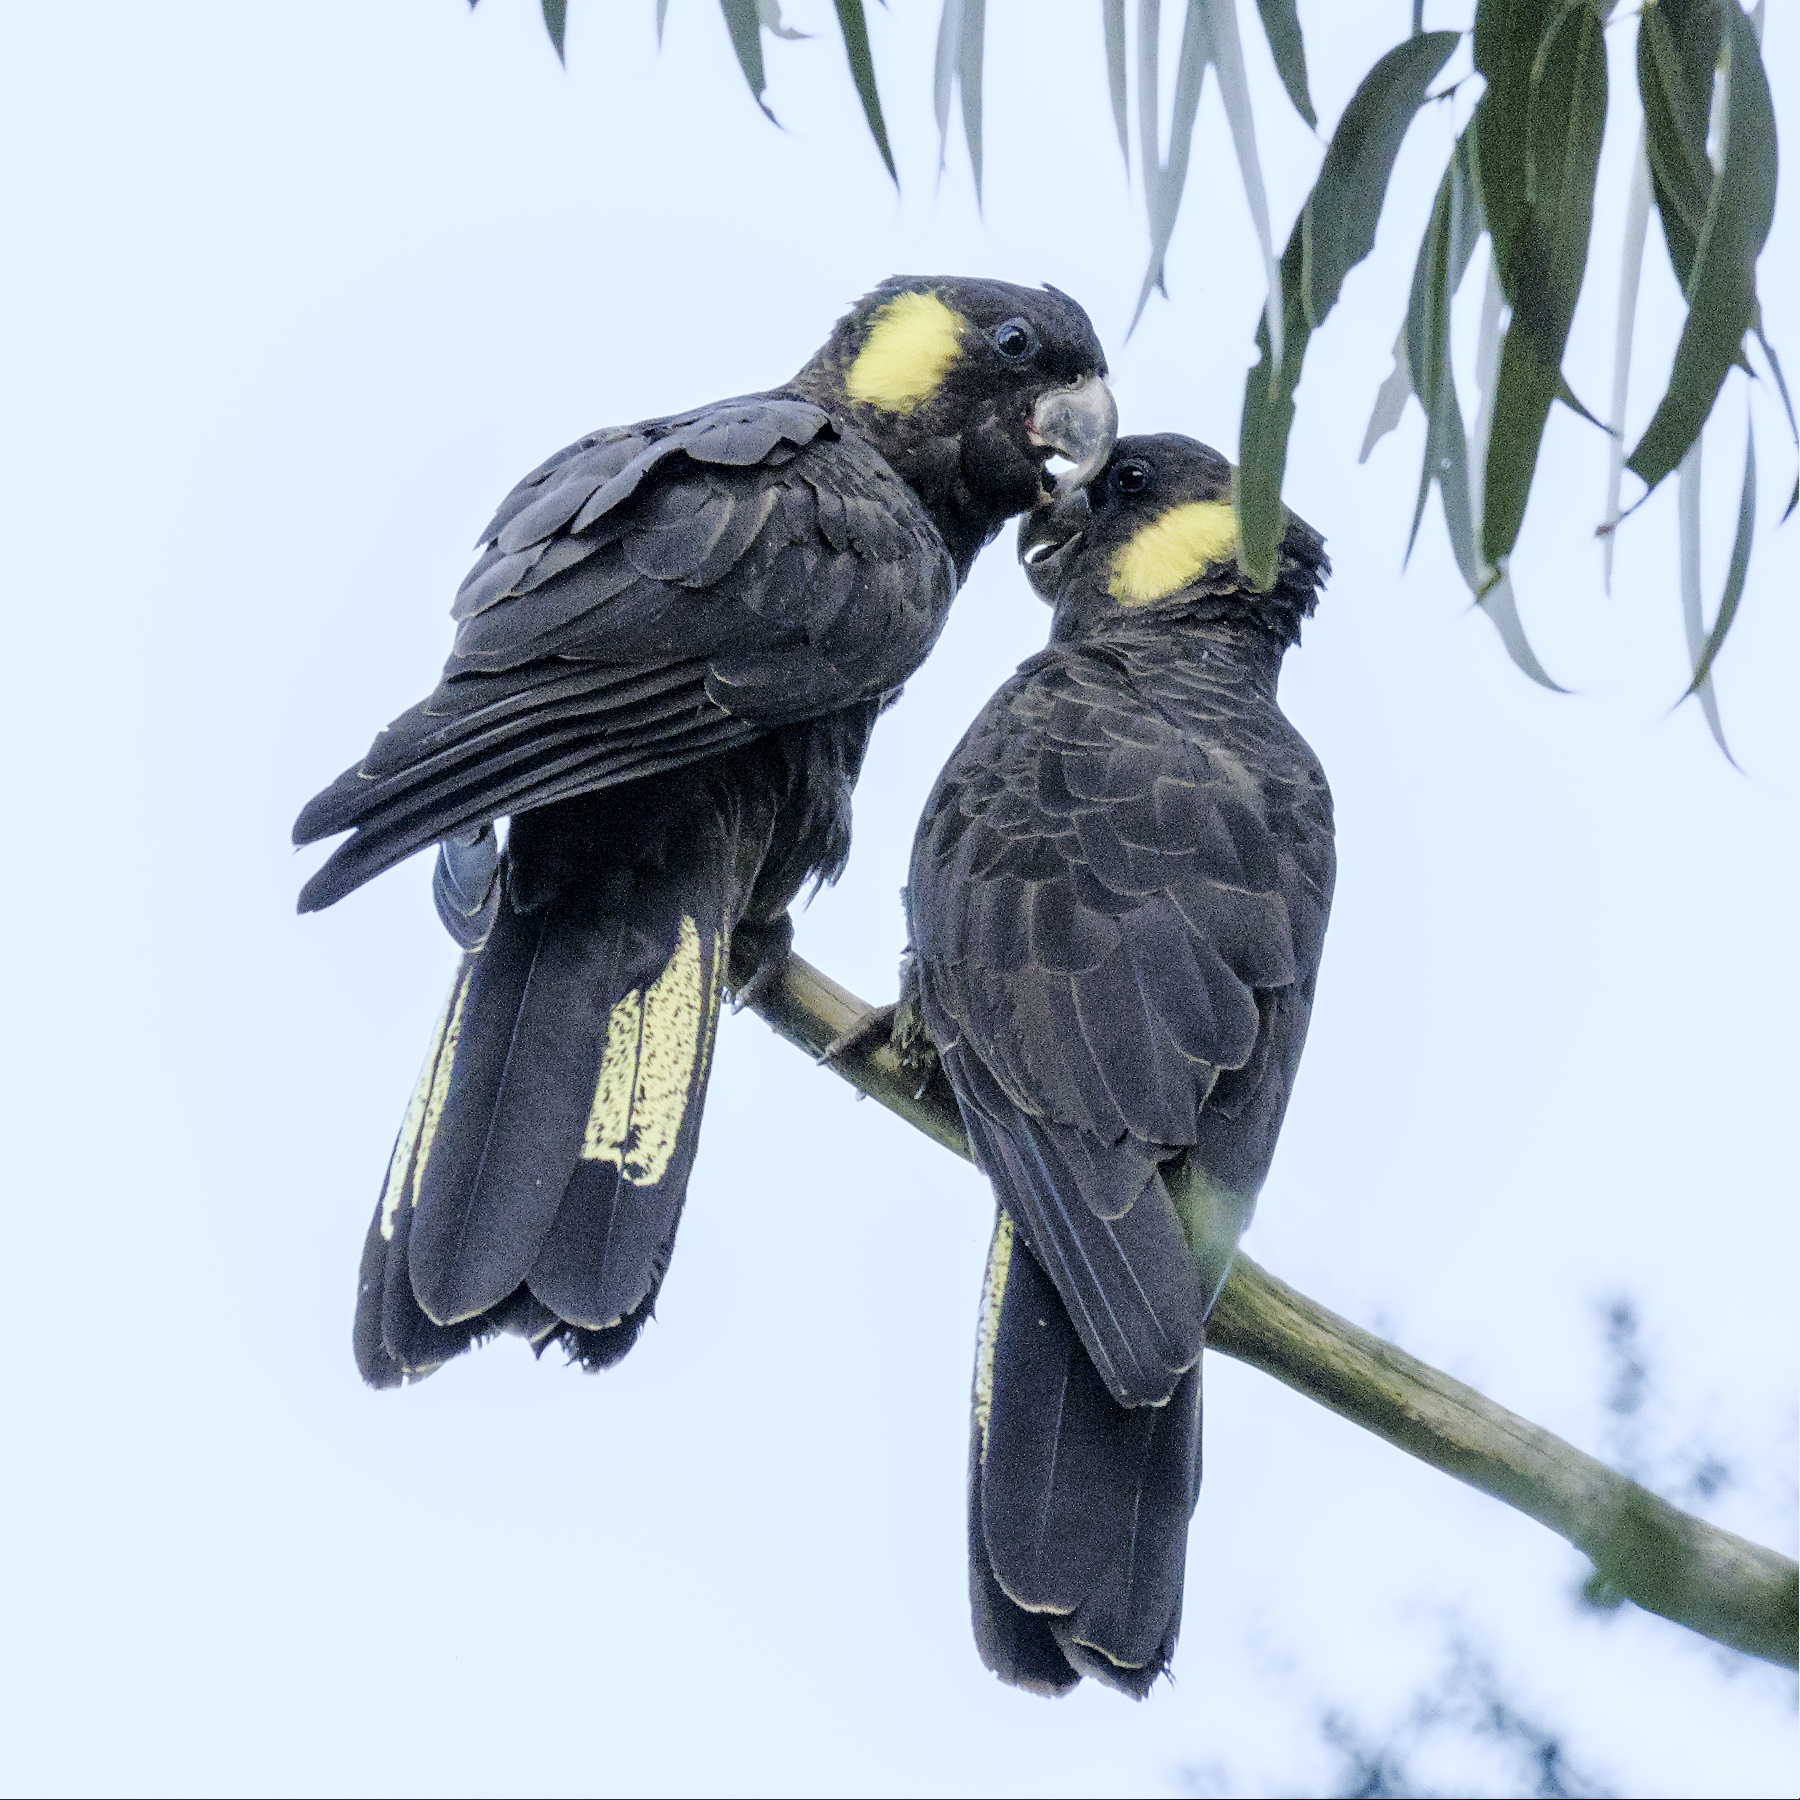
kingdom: Animalia
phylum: Chordata
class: Aves
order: Psittaciformes
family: Cacatuidae
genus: Zanda
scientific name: Zanda funerea
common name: Yellow-tailed black-cockatoo
